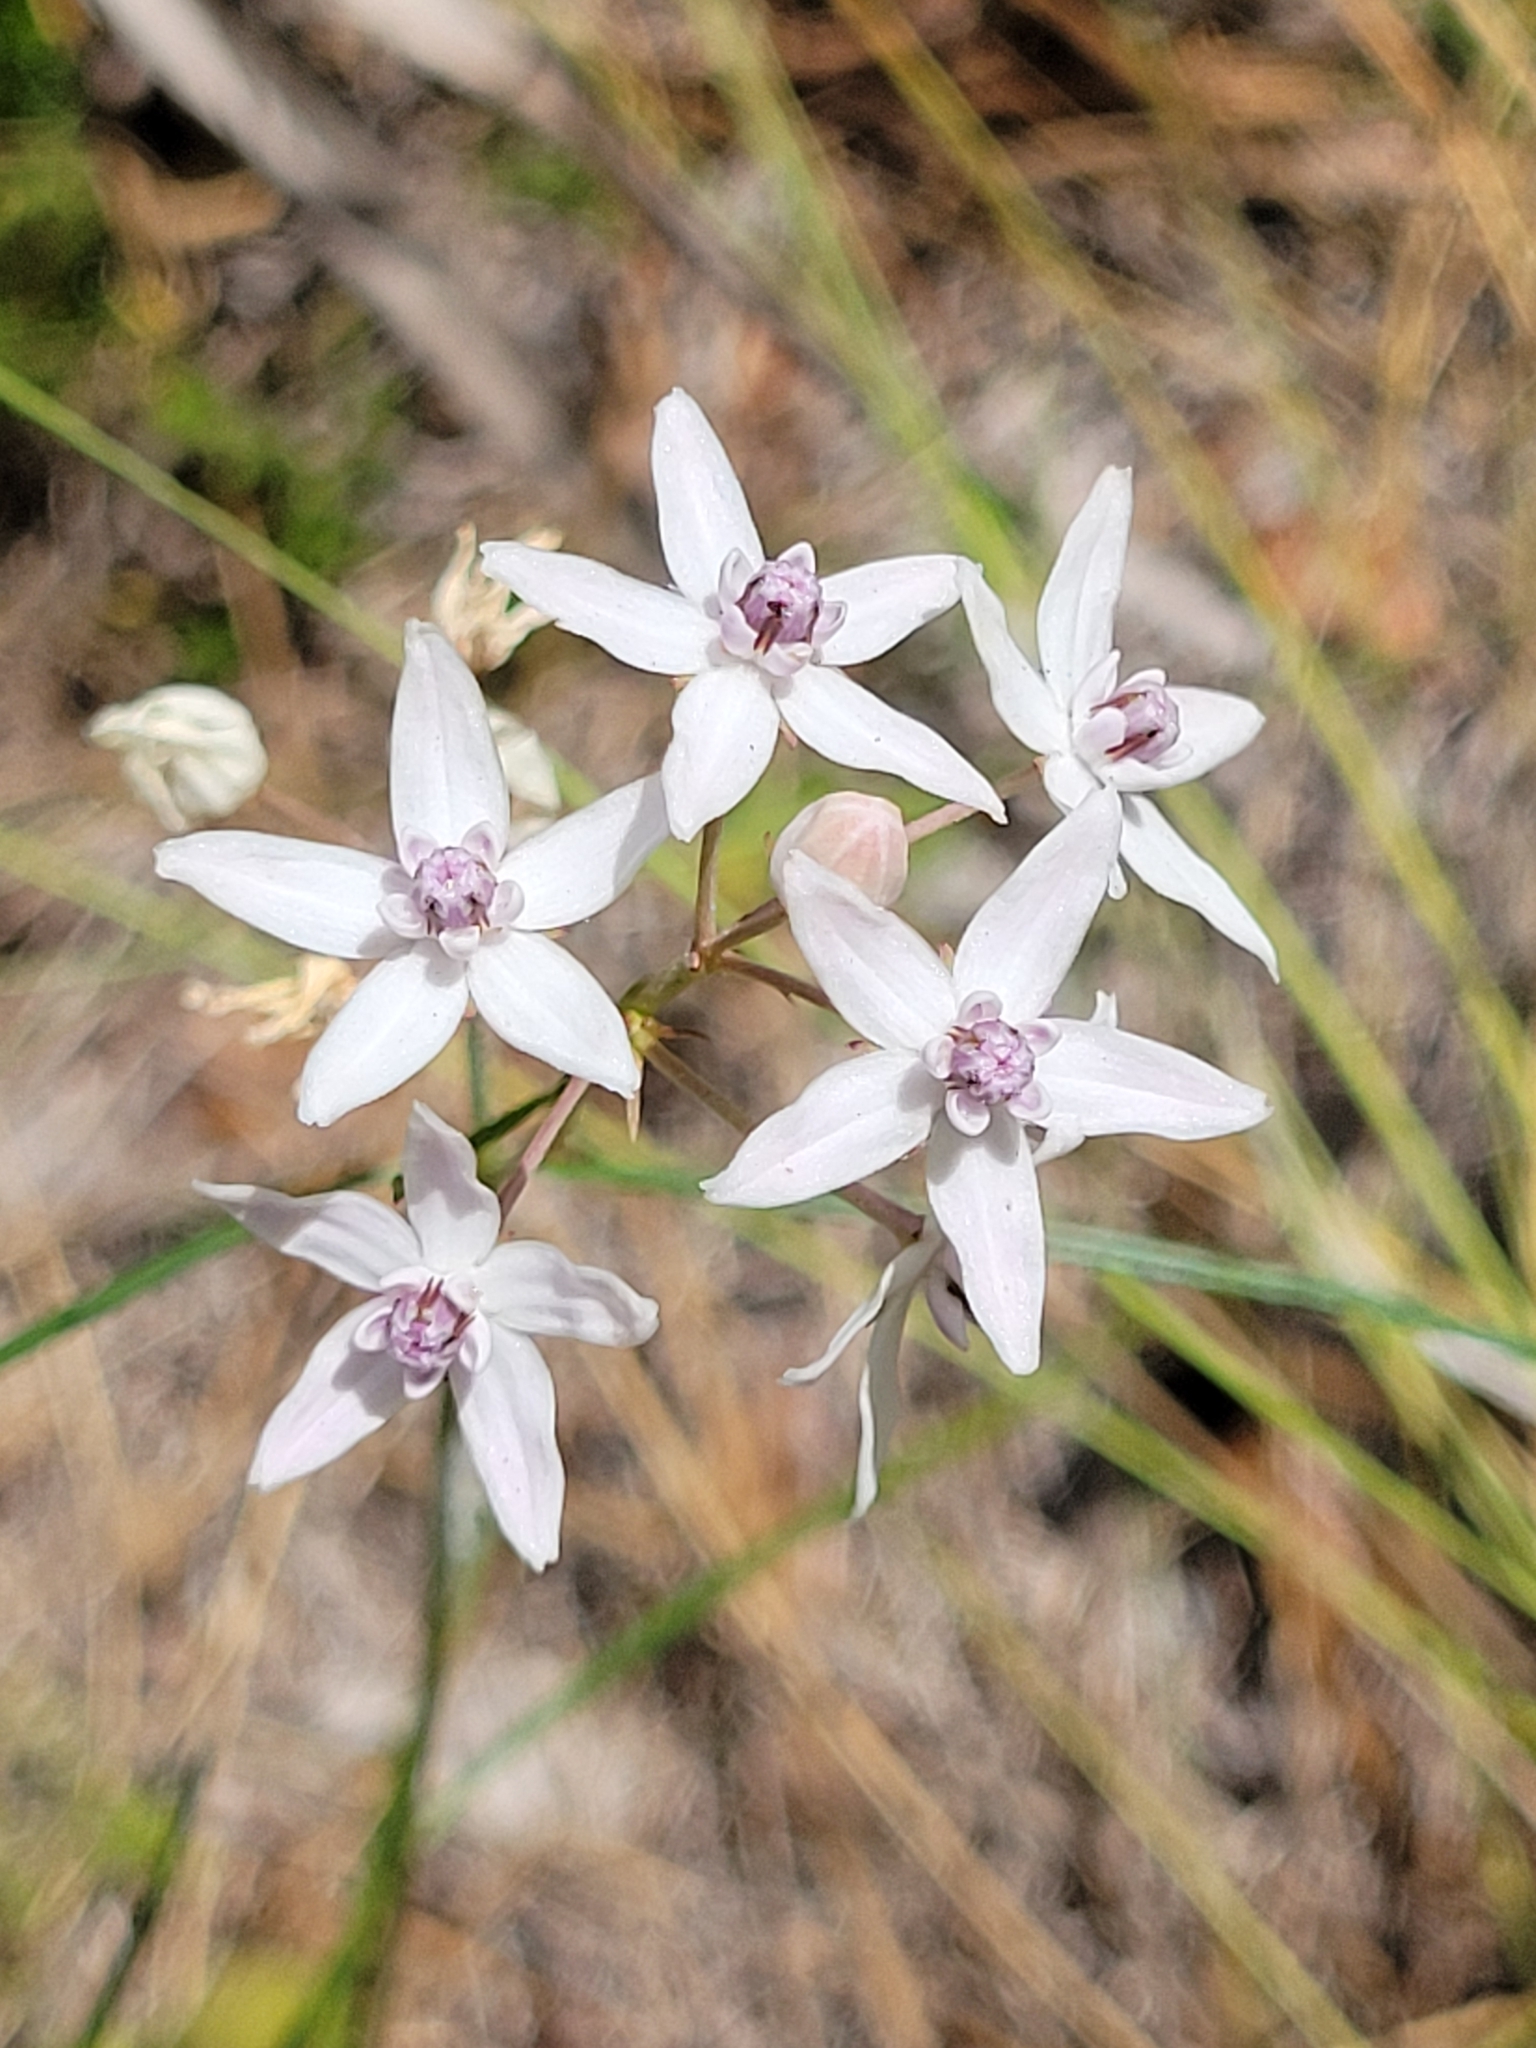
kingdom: Plantae
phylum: Tracheophyta
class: Magnoliopsida
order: Gentianales
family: Apocynaceae
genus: Asclepias
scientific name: Asclepias feayi
